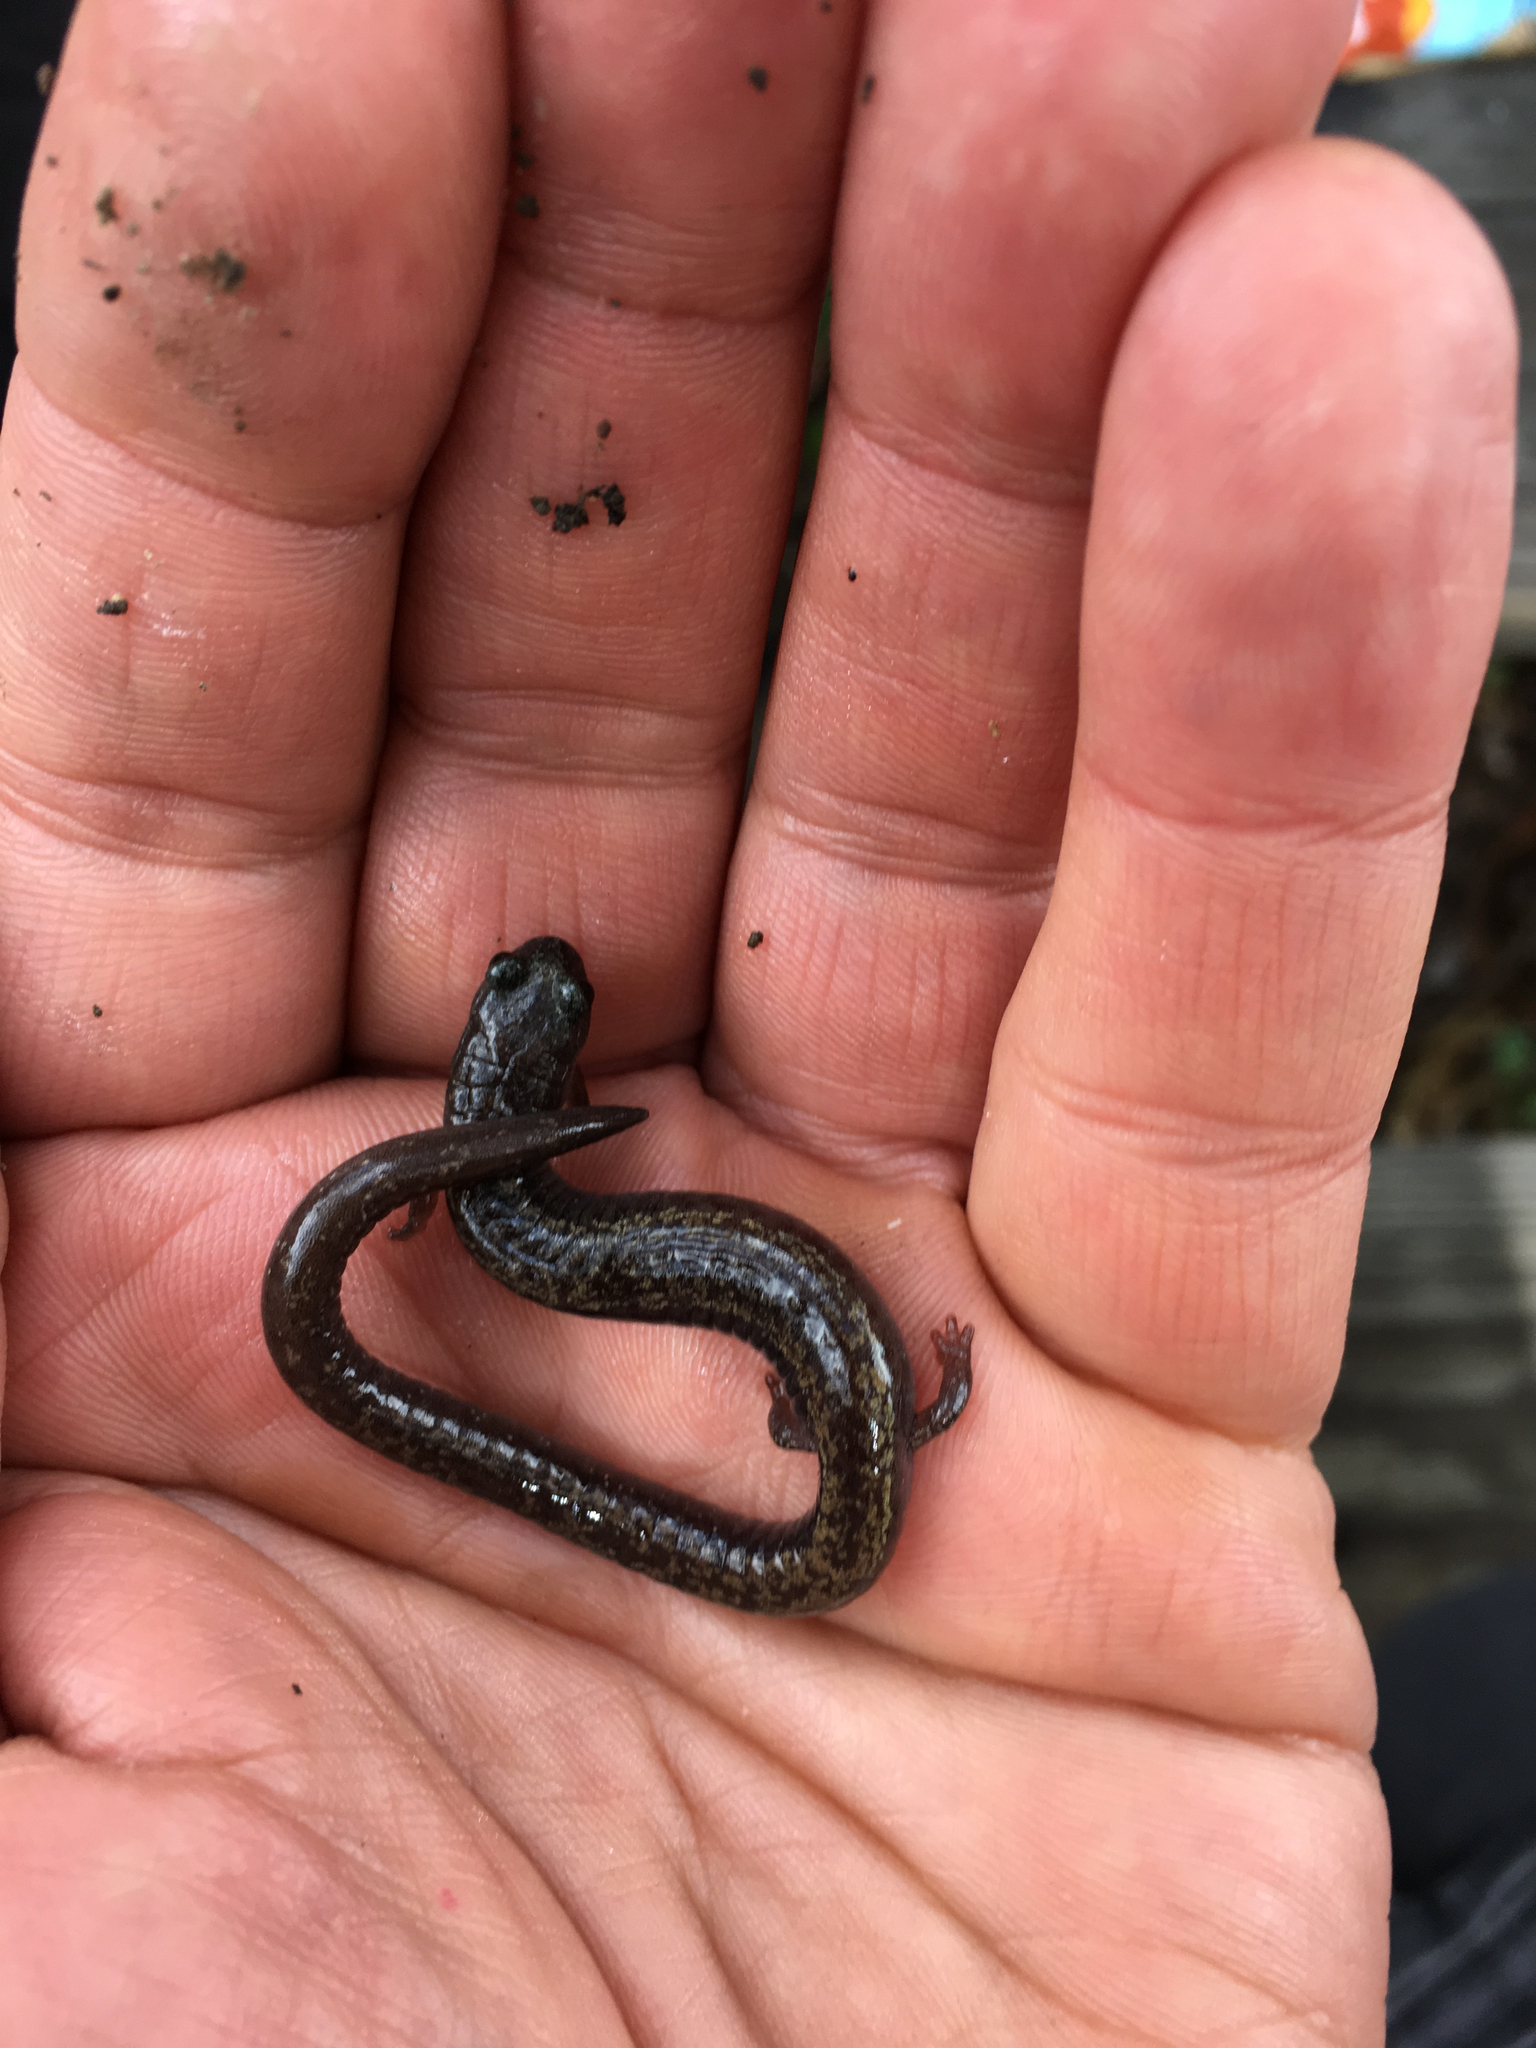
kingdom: Animalia
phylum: Chordata
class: Amphibia
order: Caudata
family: Plethodontidae
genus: Batrachoseps
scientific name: Batrachoseps pacificus
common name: Channel islands slender salamander
